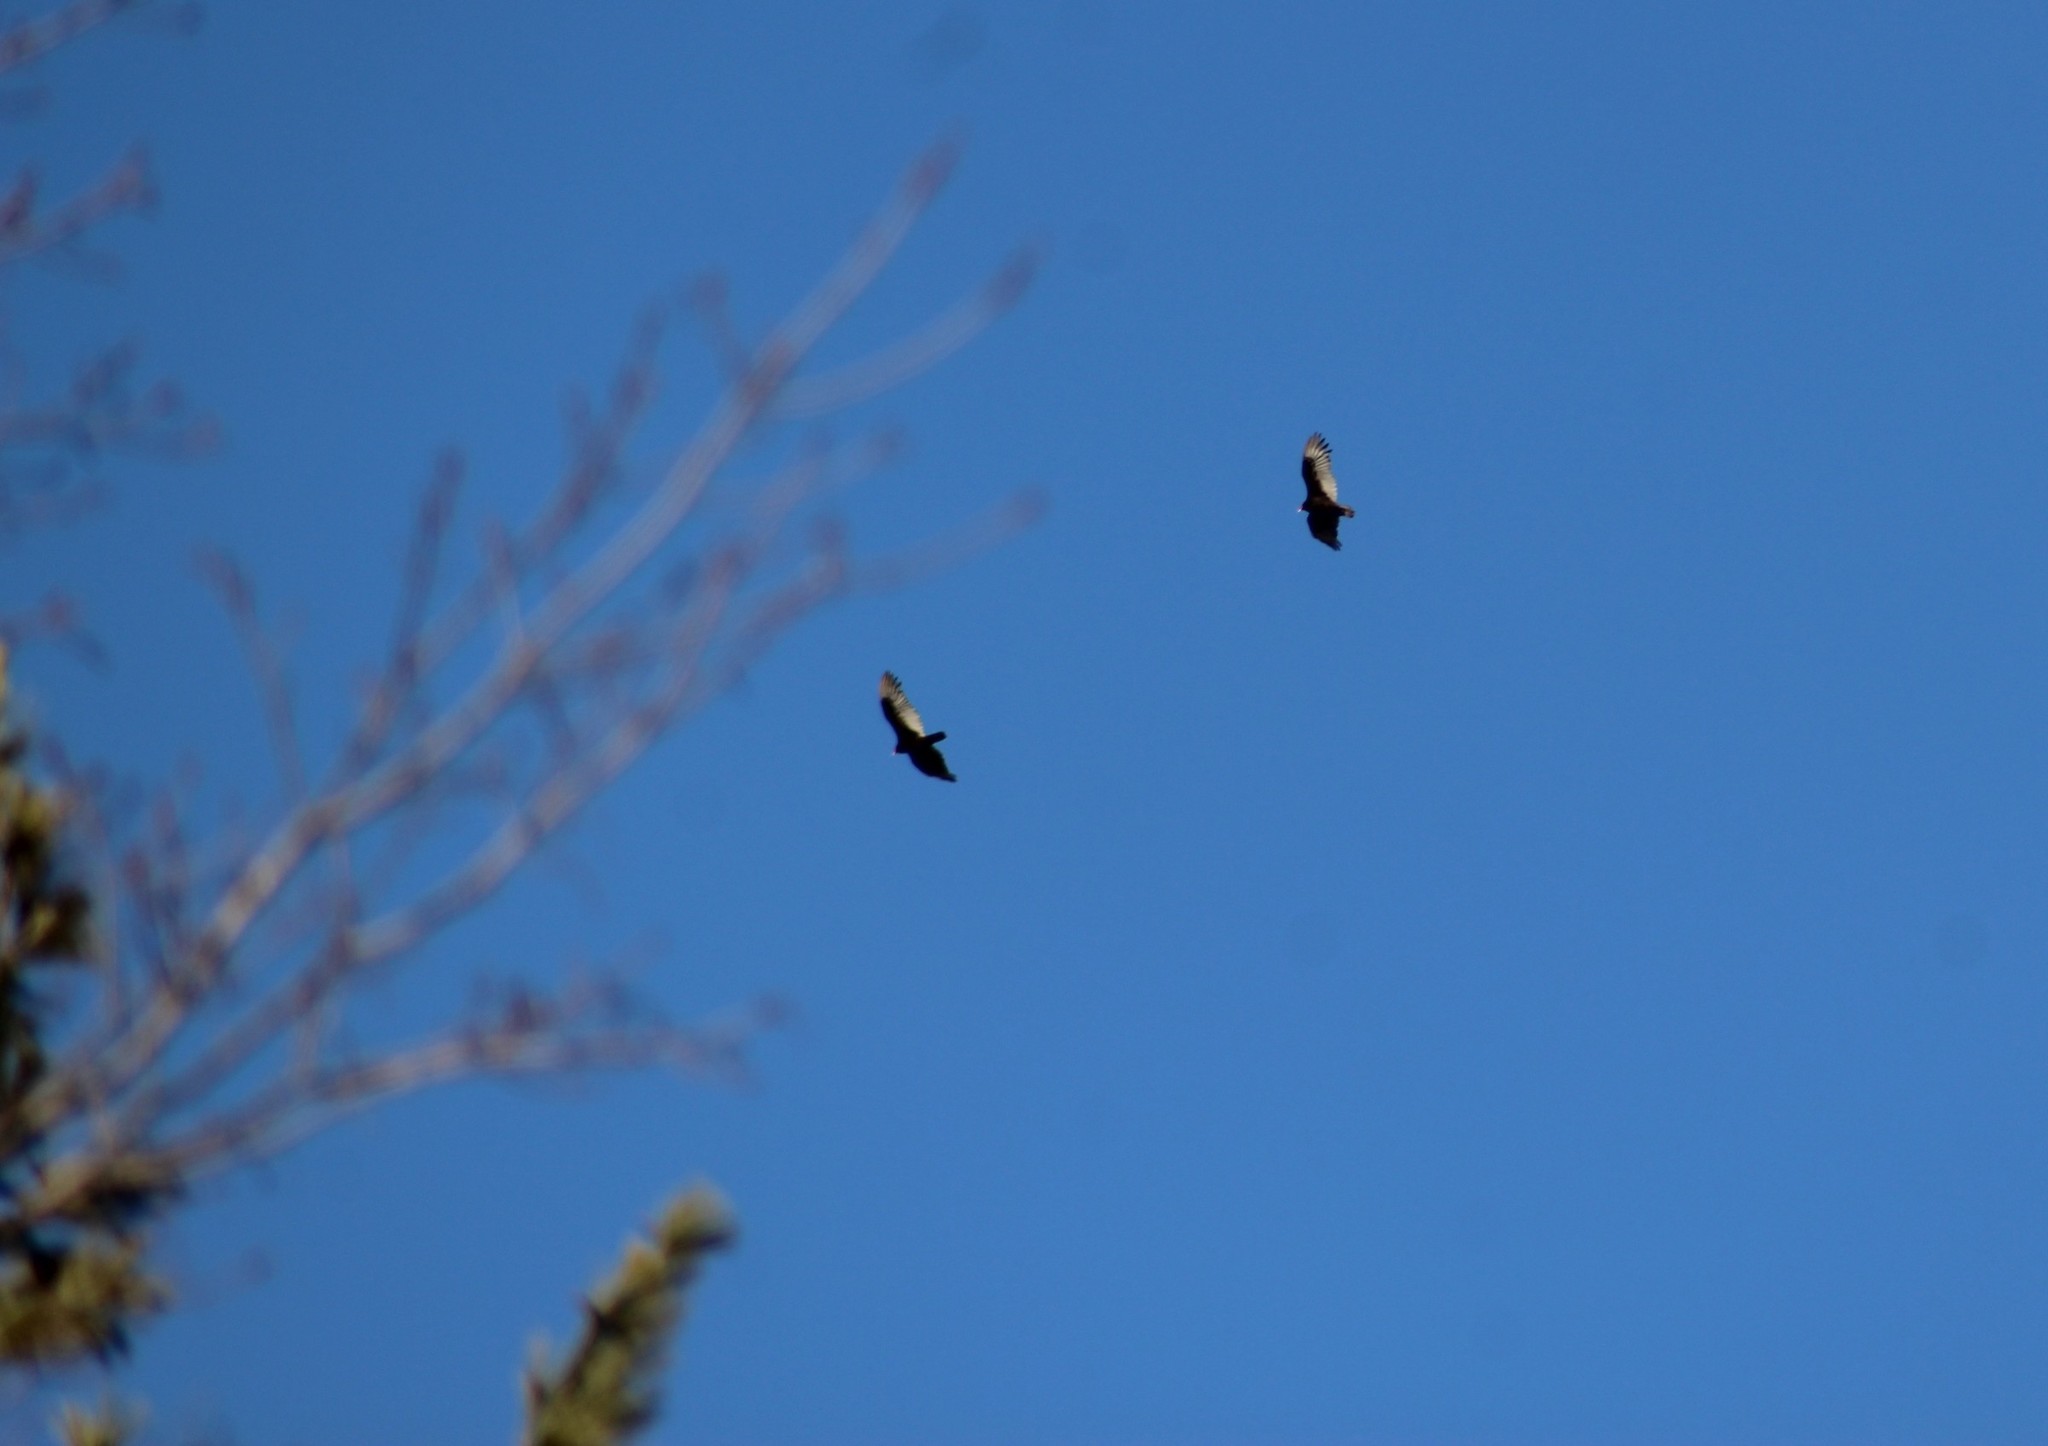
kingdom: Animalia
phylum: Chordata
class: Aves
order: Accipitriformes
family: Cathartidae
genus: Cathartes
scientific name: Cathartes aura
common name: Turkey vulture
